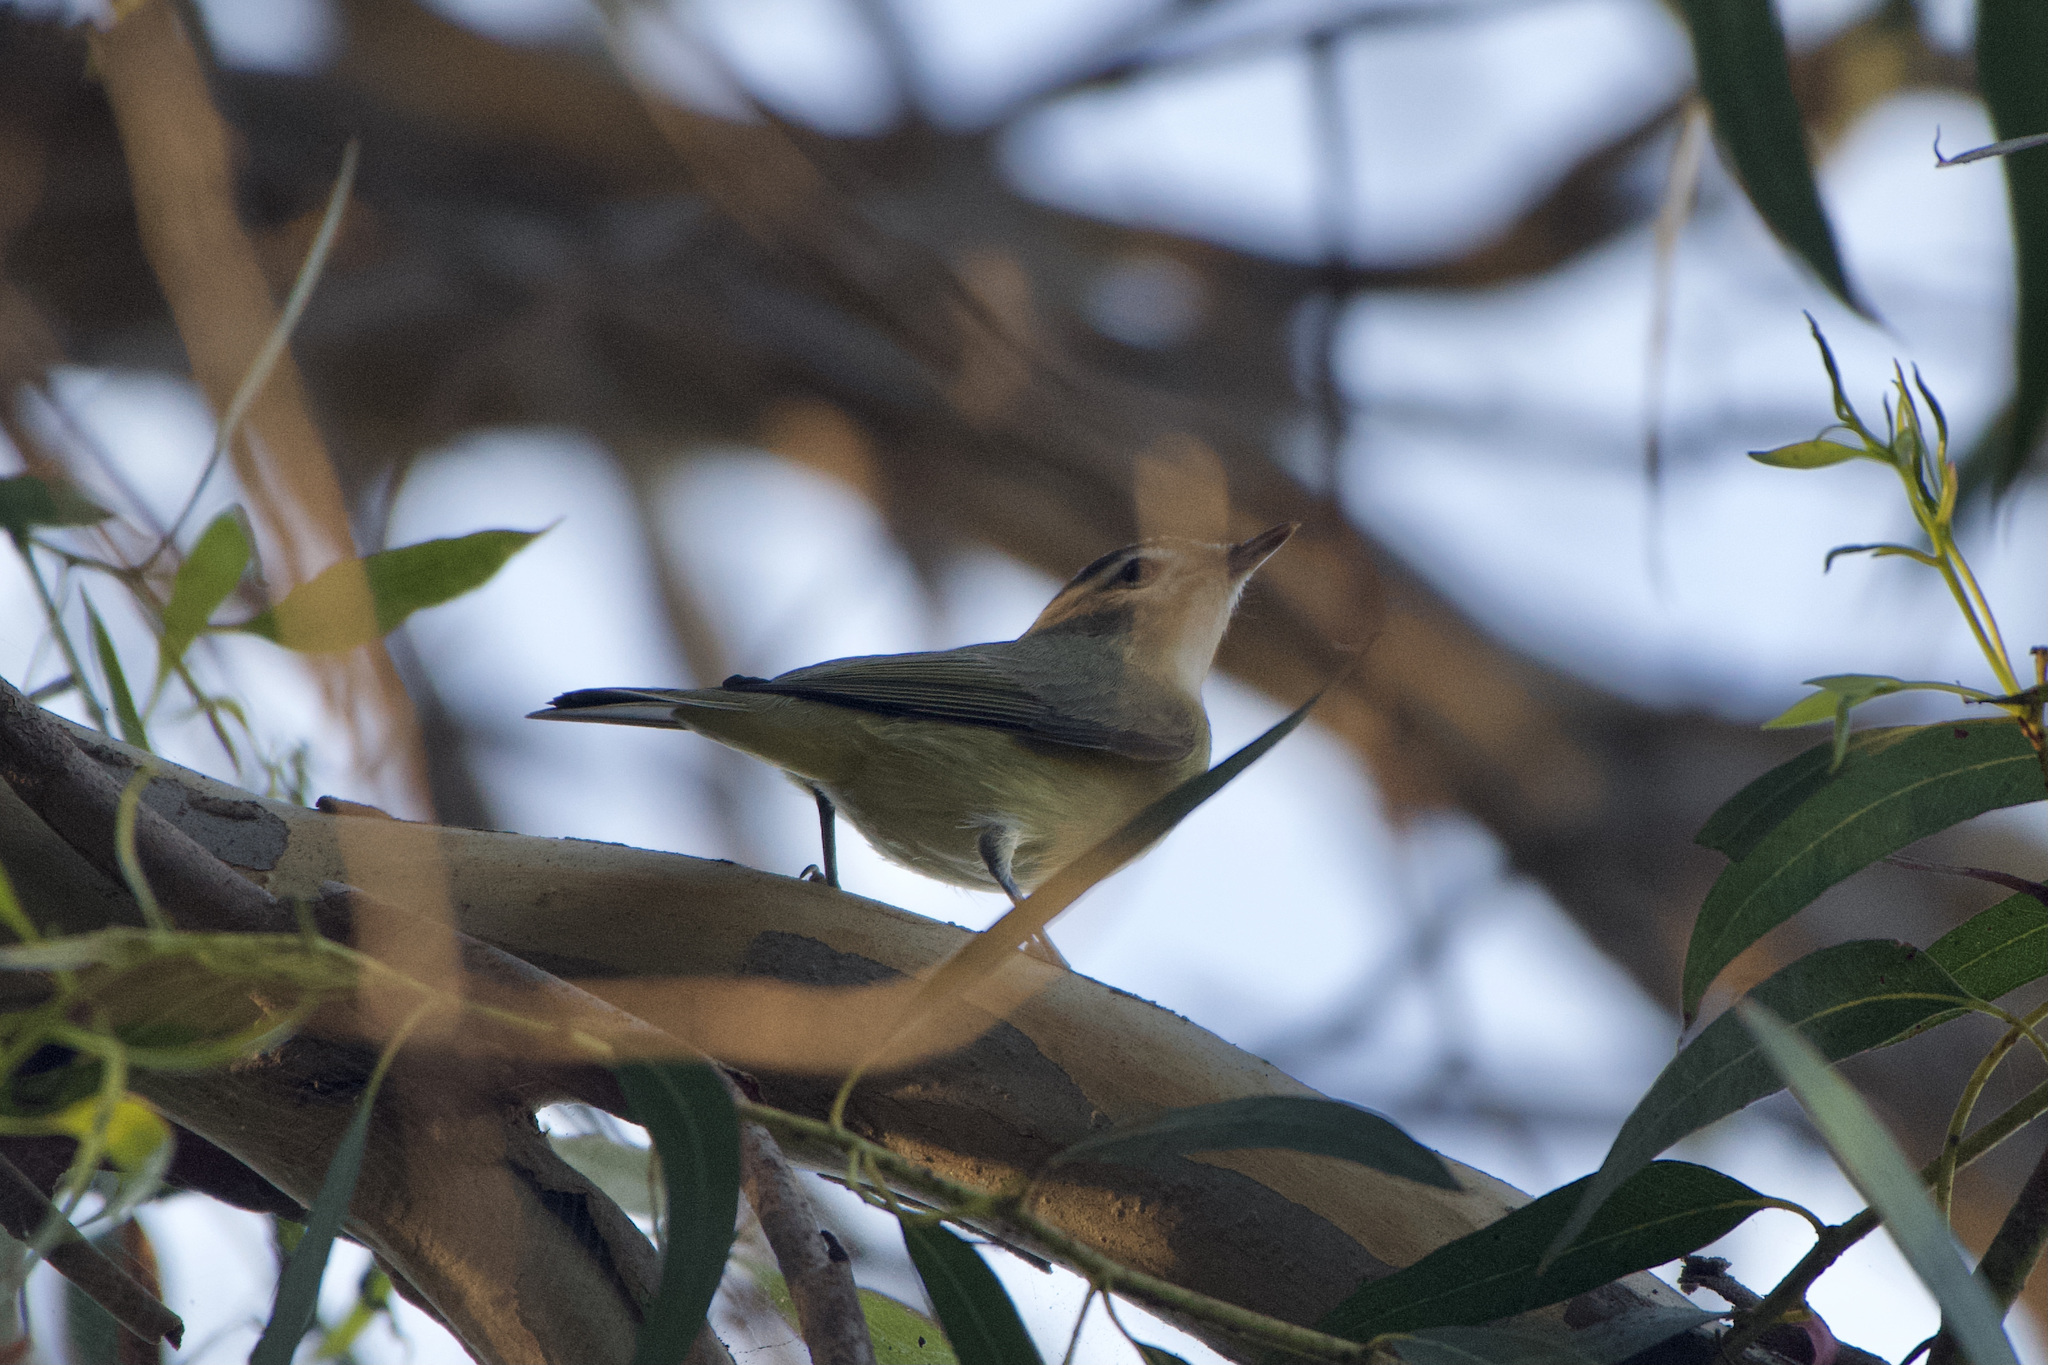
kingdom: Animalia
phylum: Chordata
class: Aves
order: Passeriformes
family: Vireonidae
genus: Vireo
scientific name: Vireo gilvus
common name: Warbling vireo
